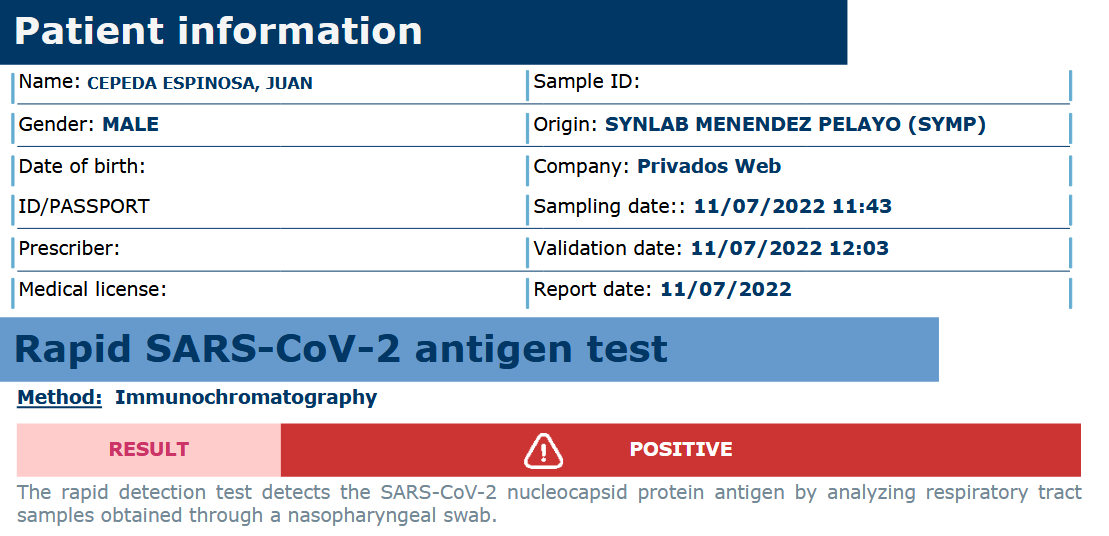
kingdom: Viruses
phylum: Pisuviricota
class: Pisoniviricetes
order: Nidovirales
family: Coronaviridae
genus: Betacoronavirus
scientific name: Betacoronavirus
